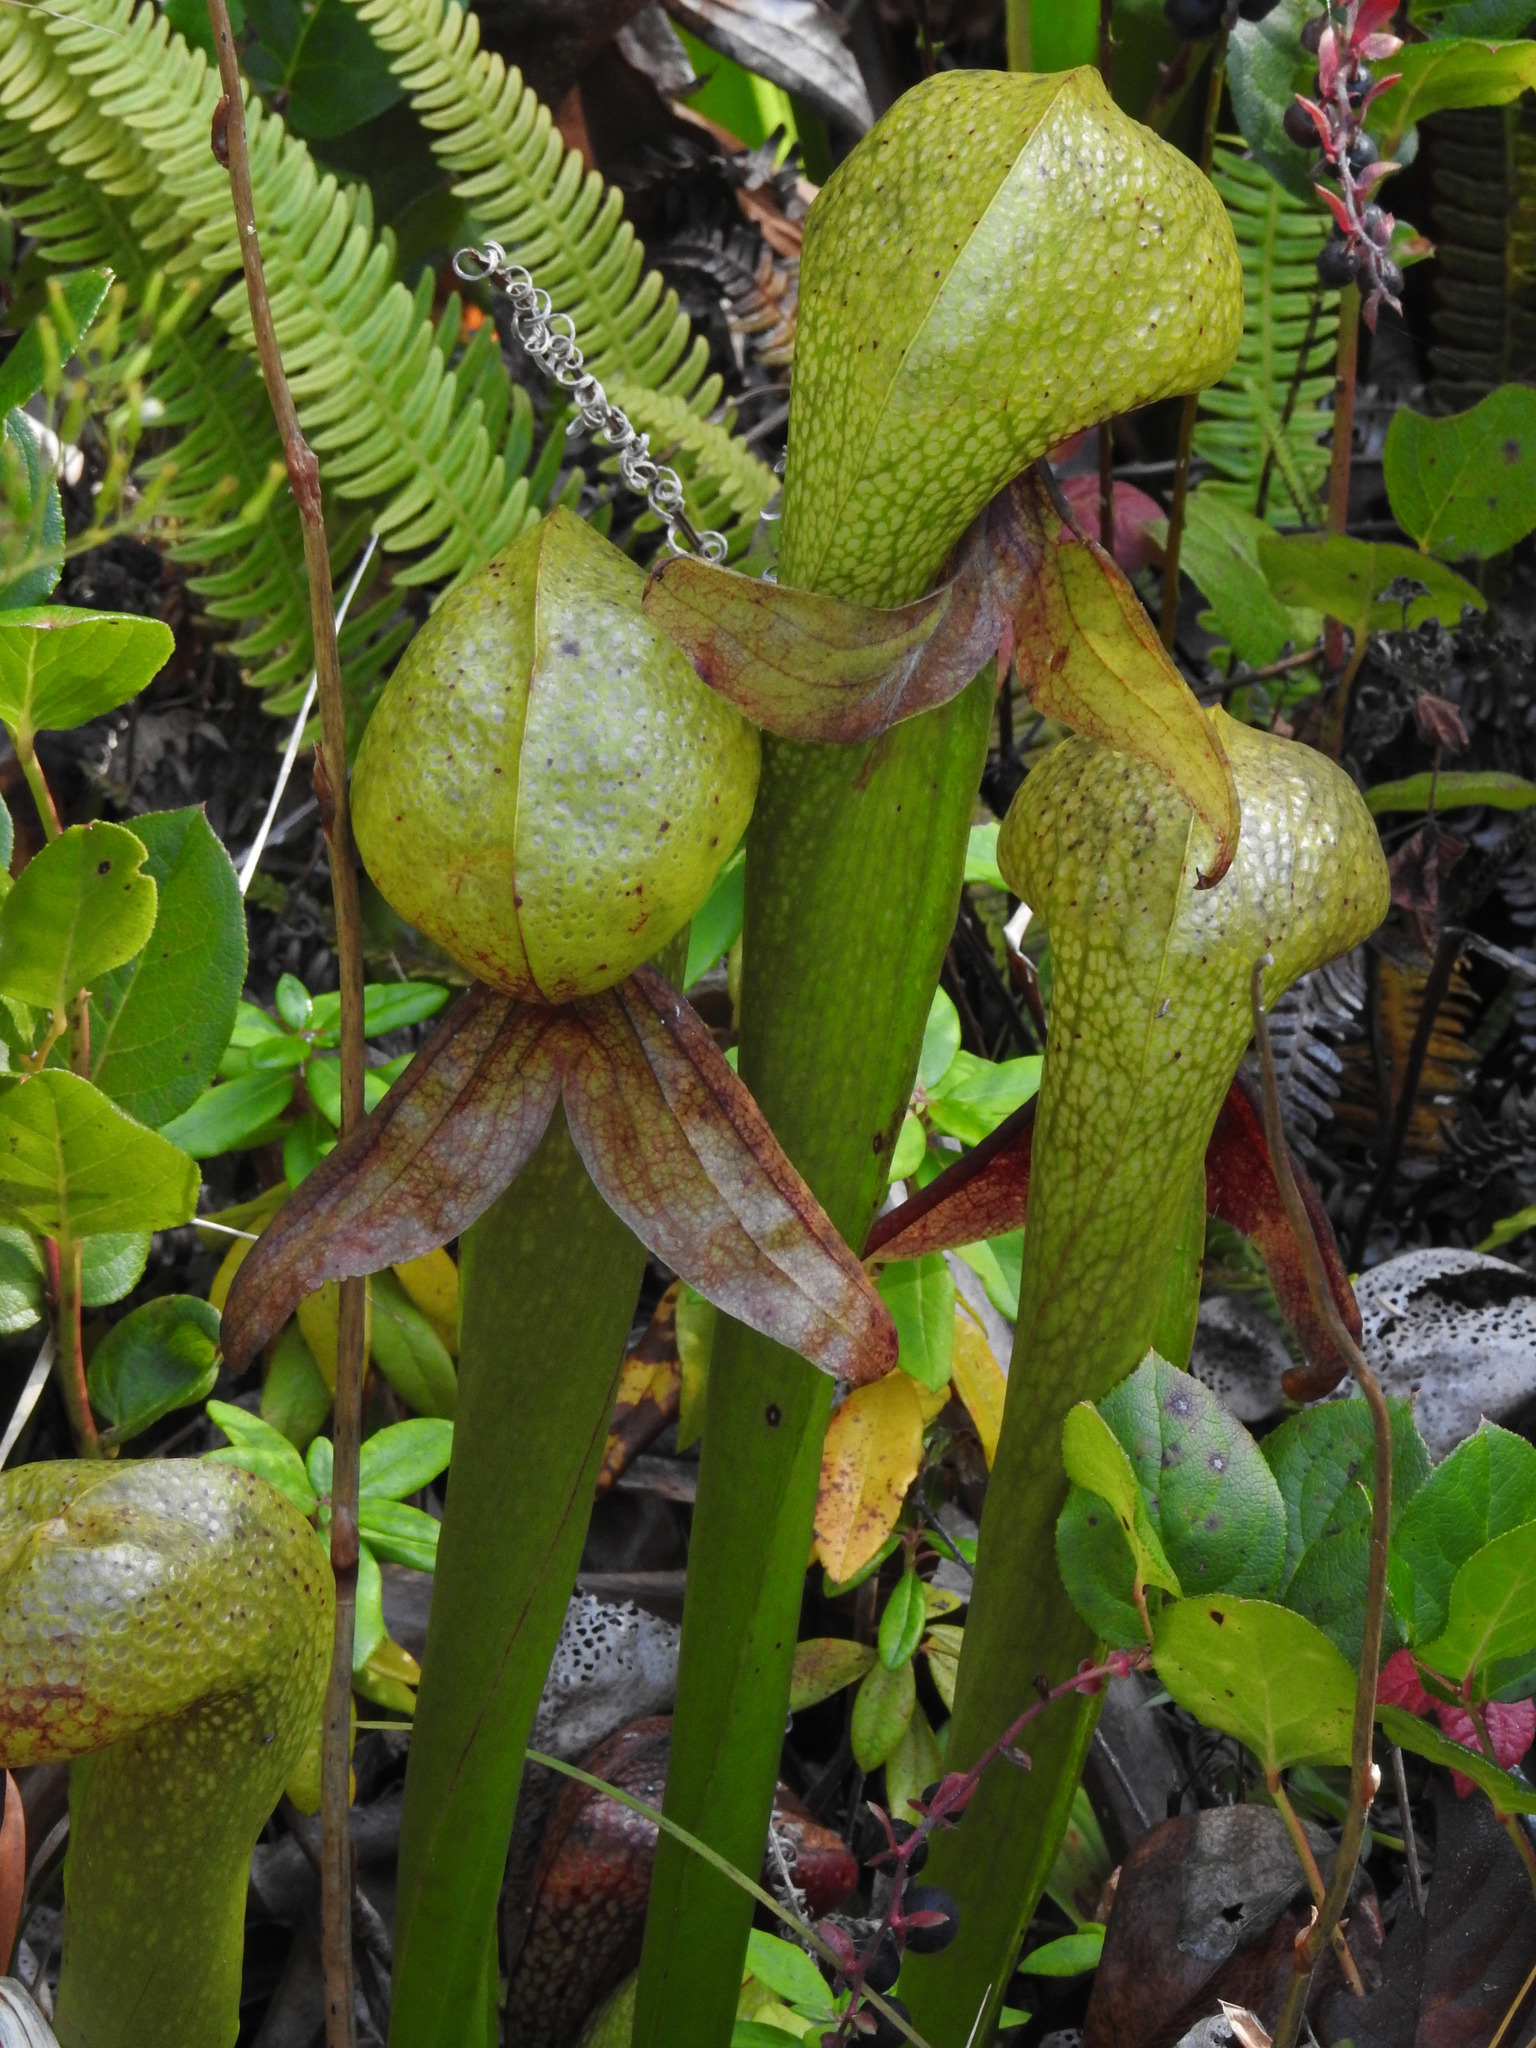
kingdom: Plantae
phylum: Tracheophyta
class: Magnoliopsida
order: Ericales
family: Sarraceniaceae
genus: Darlingtonia
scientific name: Darlingtonia californica
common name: California pitcher plant
